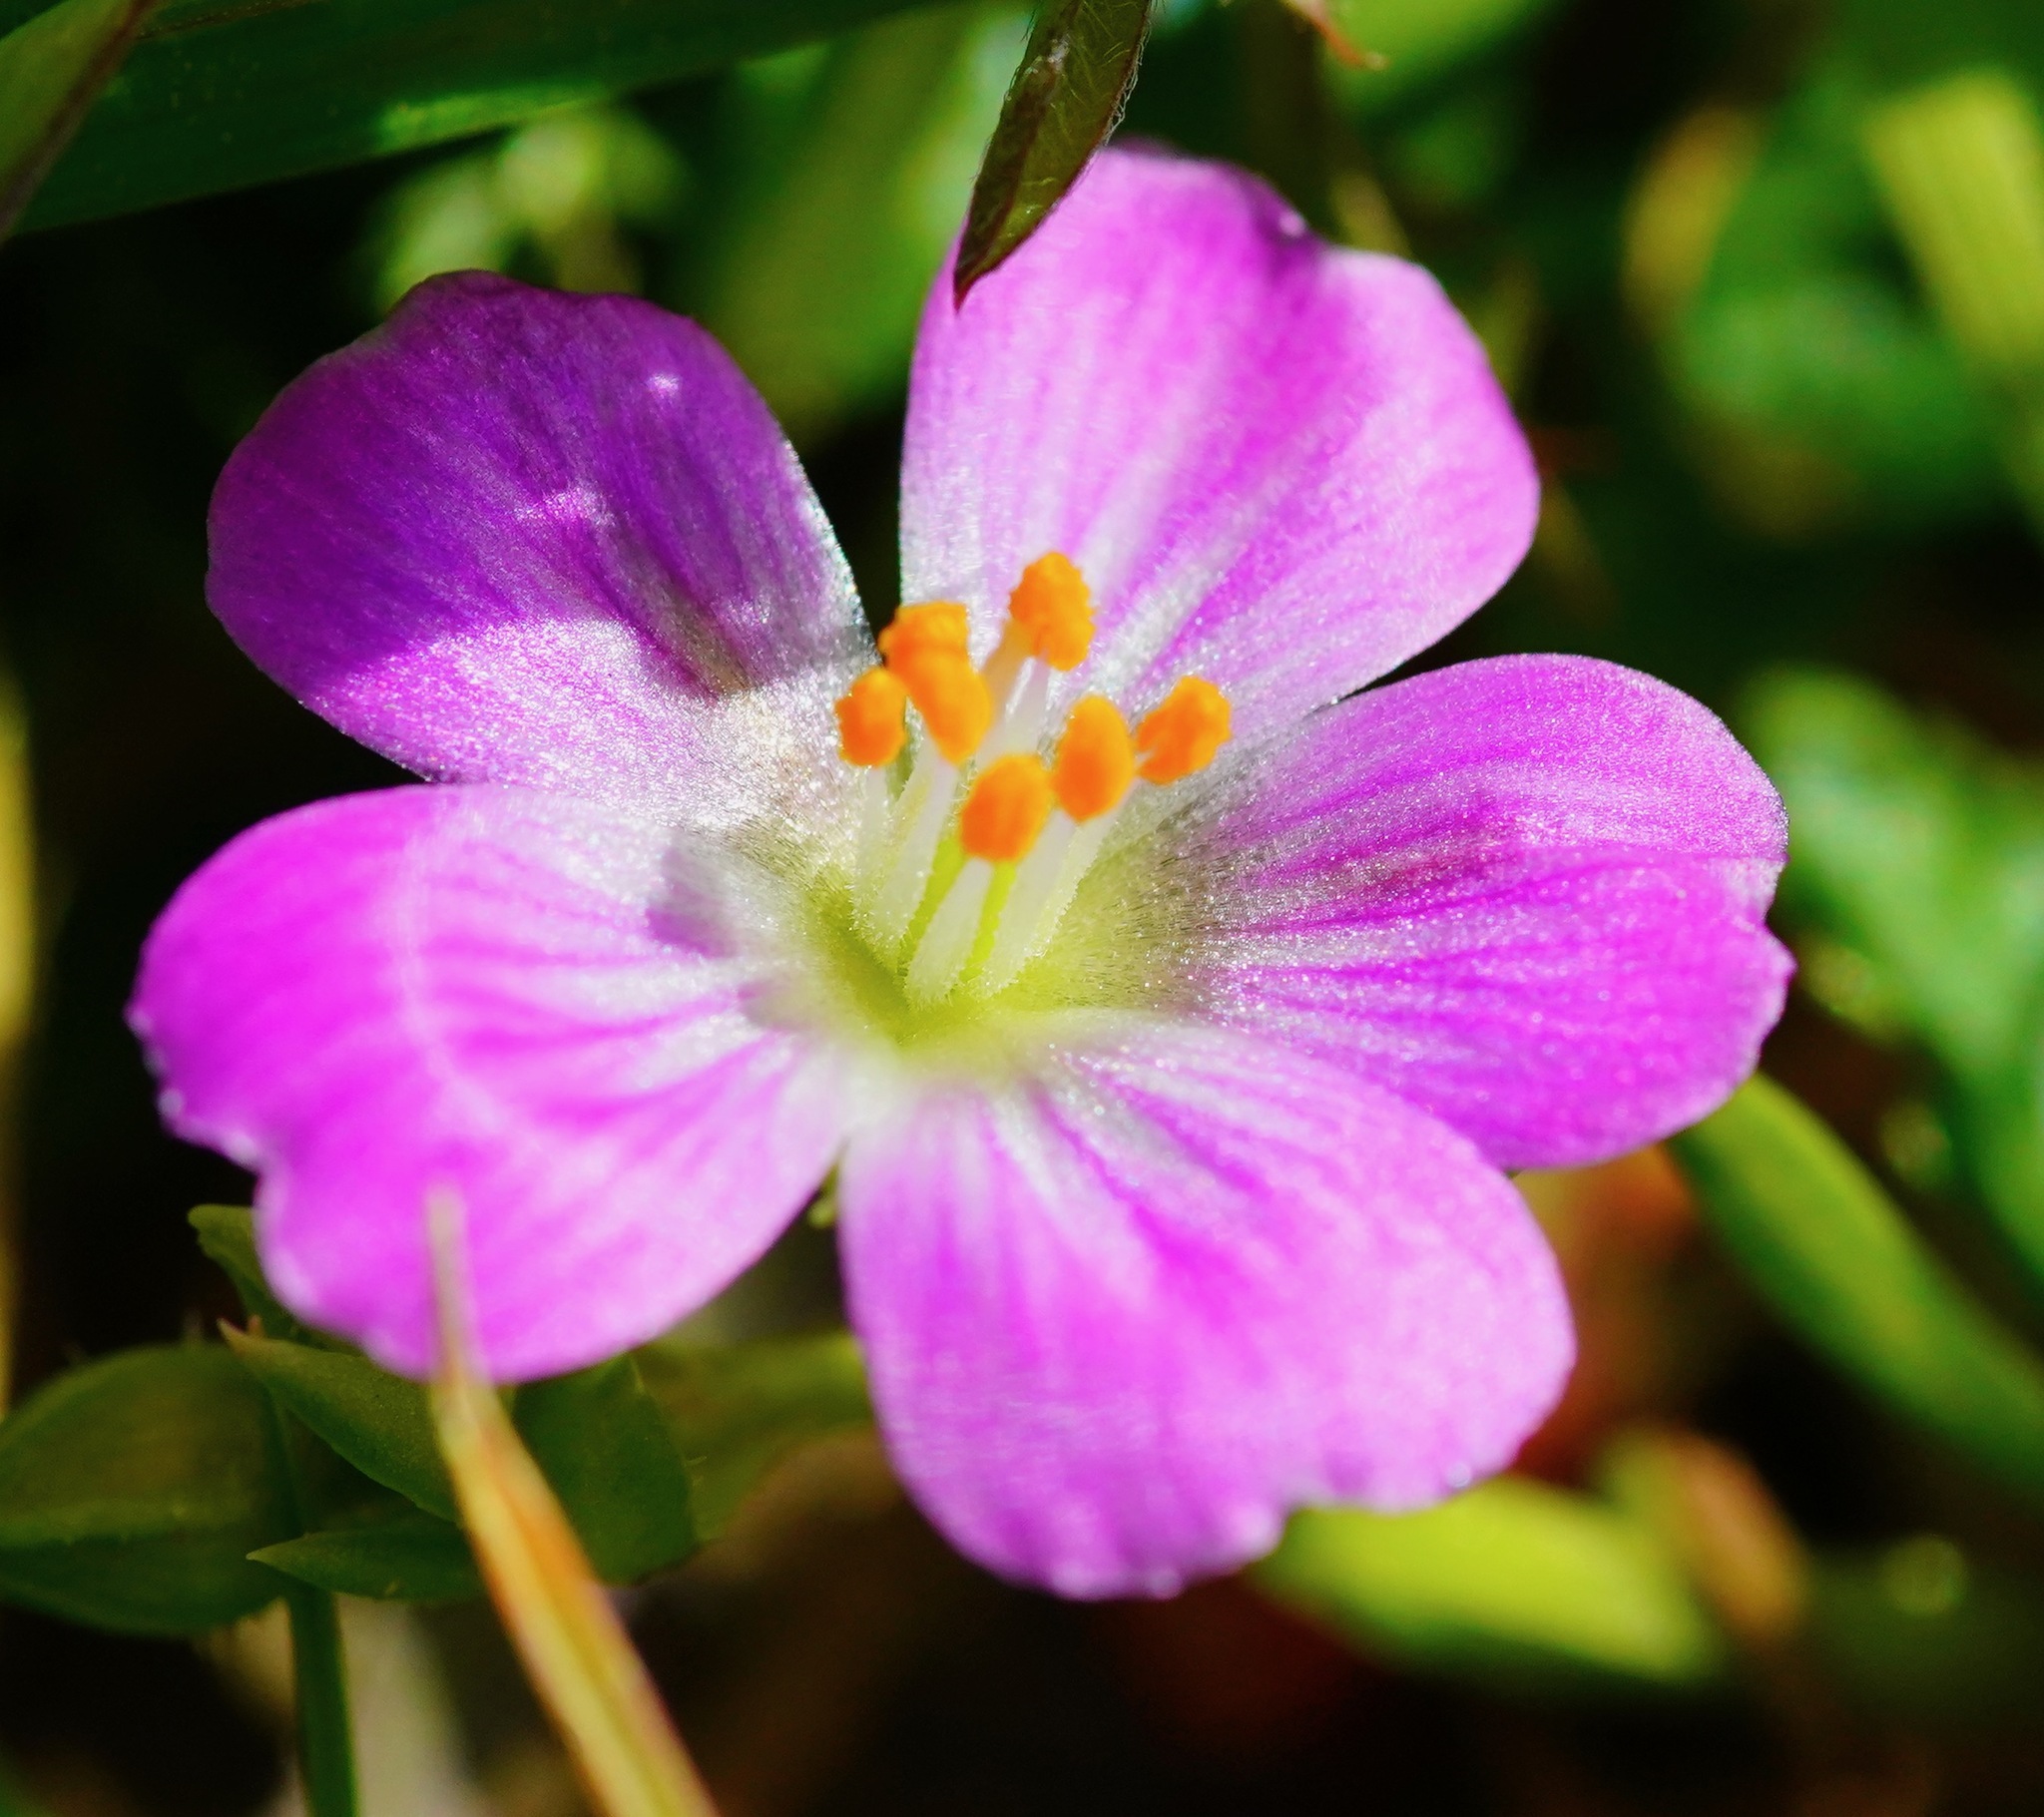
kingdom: Plantae
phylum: Tracheophyta
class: Magnoliopsida
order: Caryophyllales
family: Montiaceae
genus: Calandrinia
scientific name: Calandrinia menziesii
